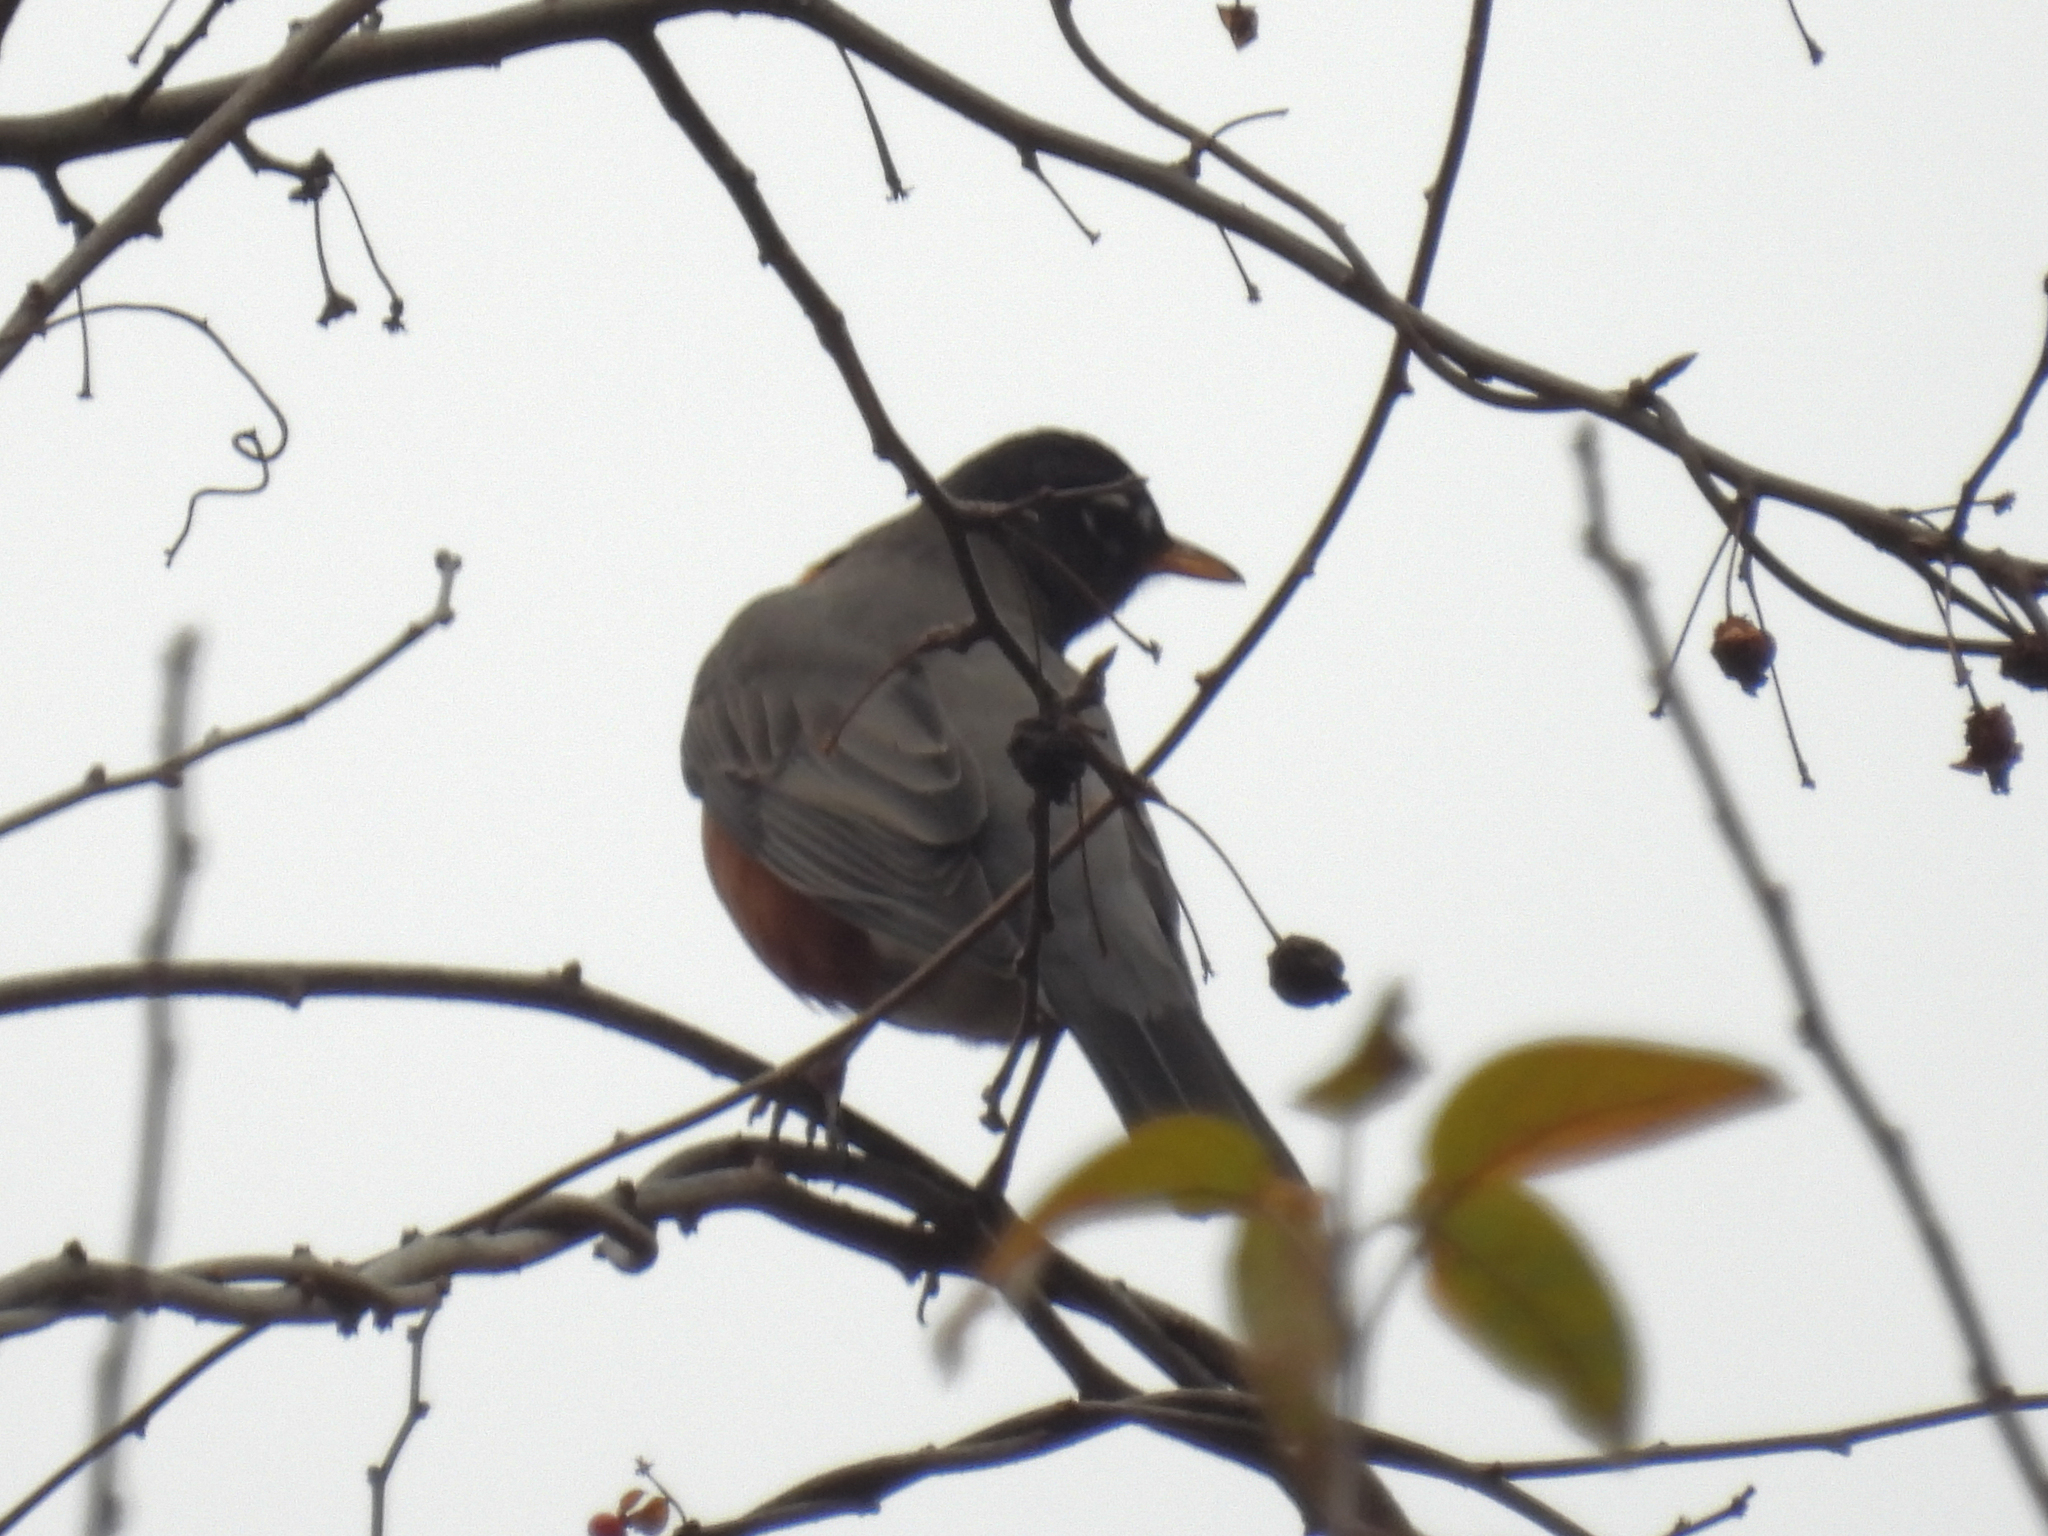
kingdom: Animalia
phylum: Chordata
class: Aves
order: Passeriformes
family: Turdidae
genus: Turdus
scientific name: Turdus migratorius
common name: American robin
